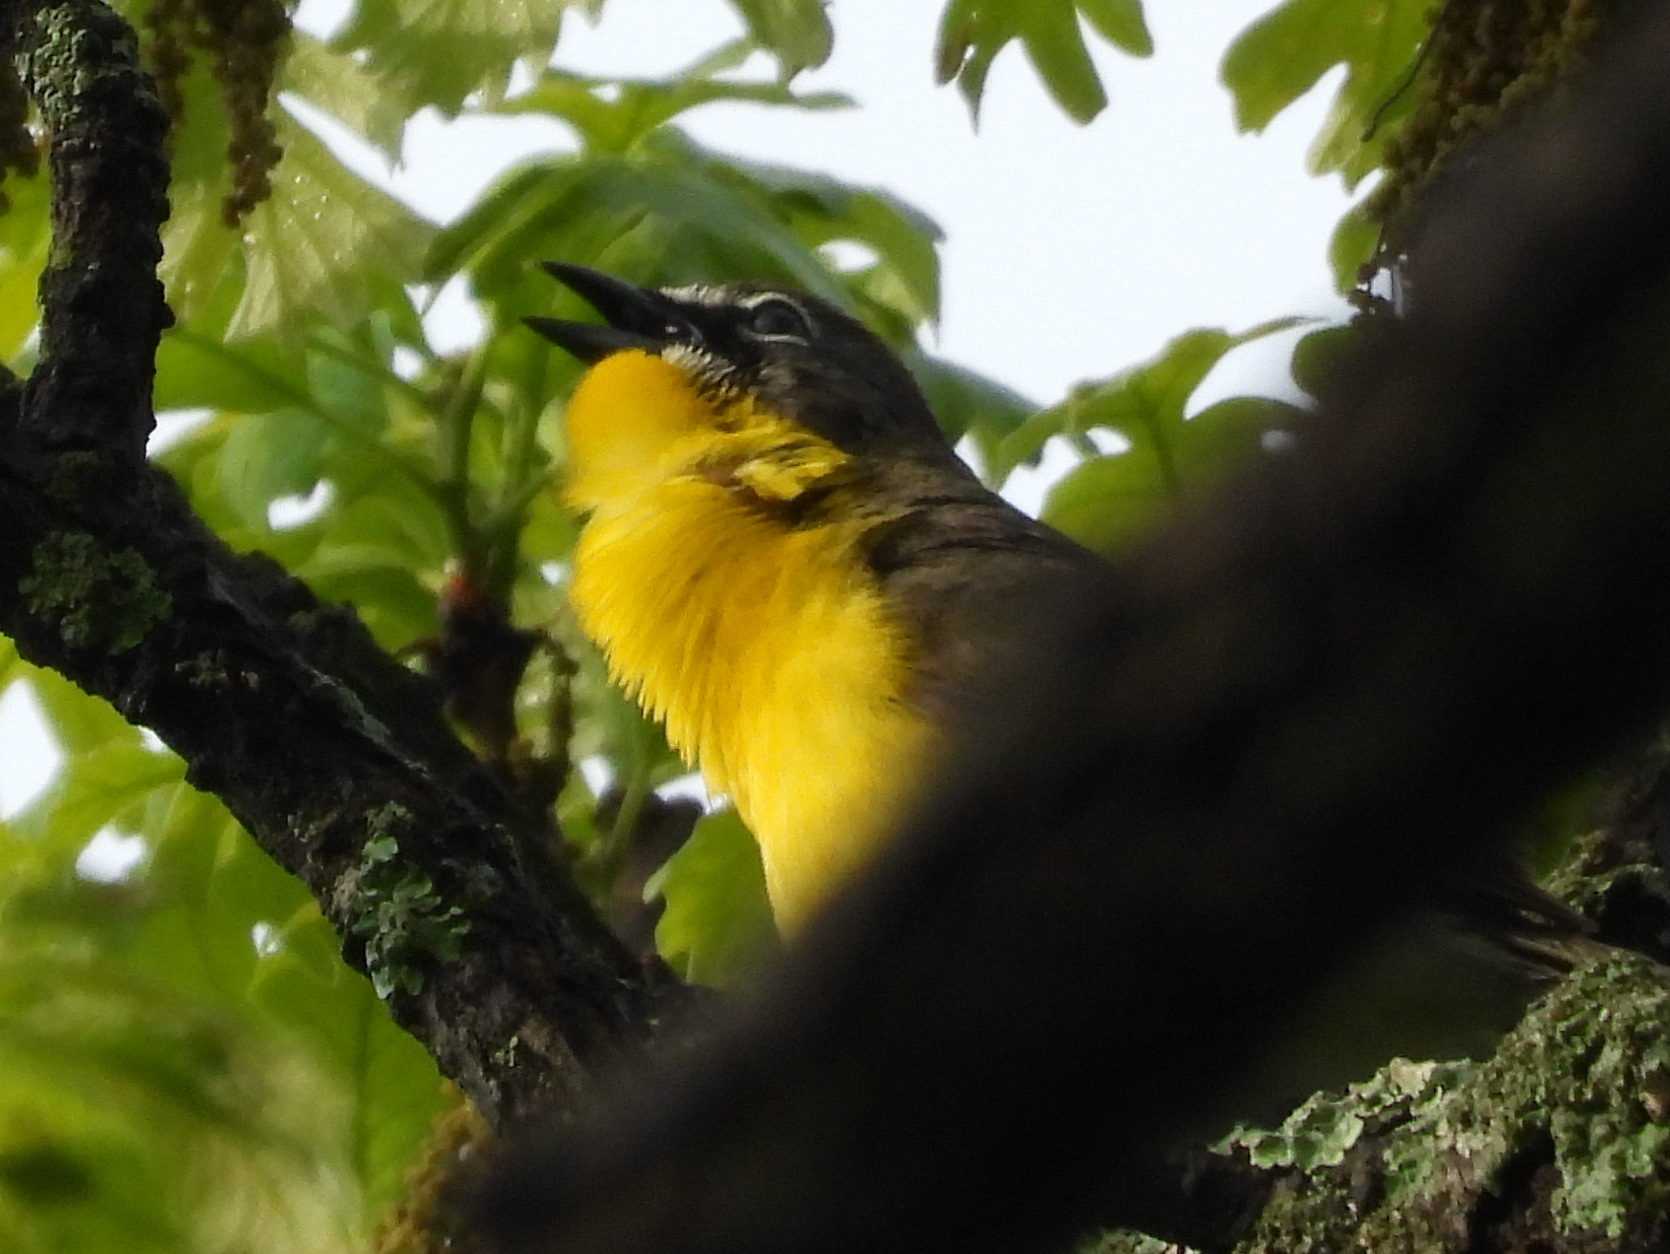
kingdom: Animalia
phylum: Chordata
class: Aves
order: Passeriformes
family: Parulidae
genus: Icteria
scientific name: Icteria virens
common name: Yellow-breasted chat
